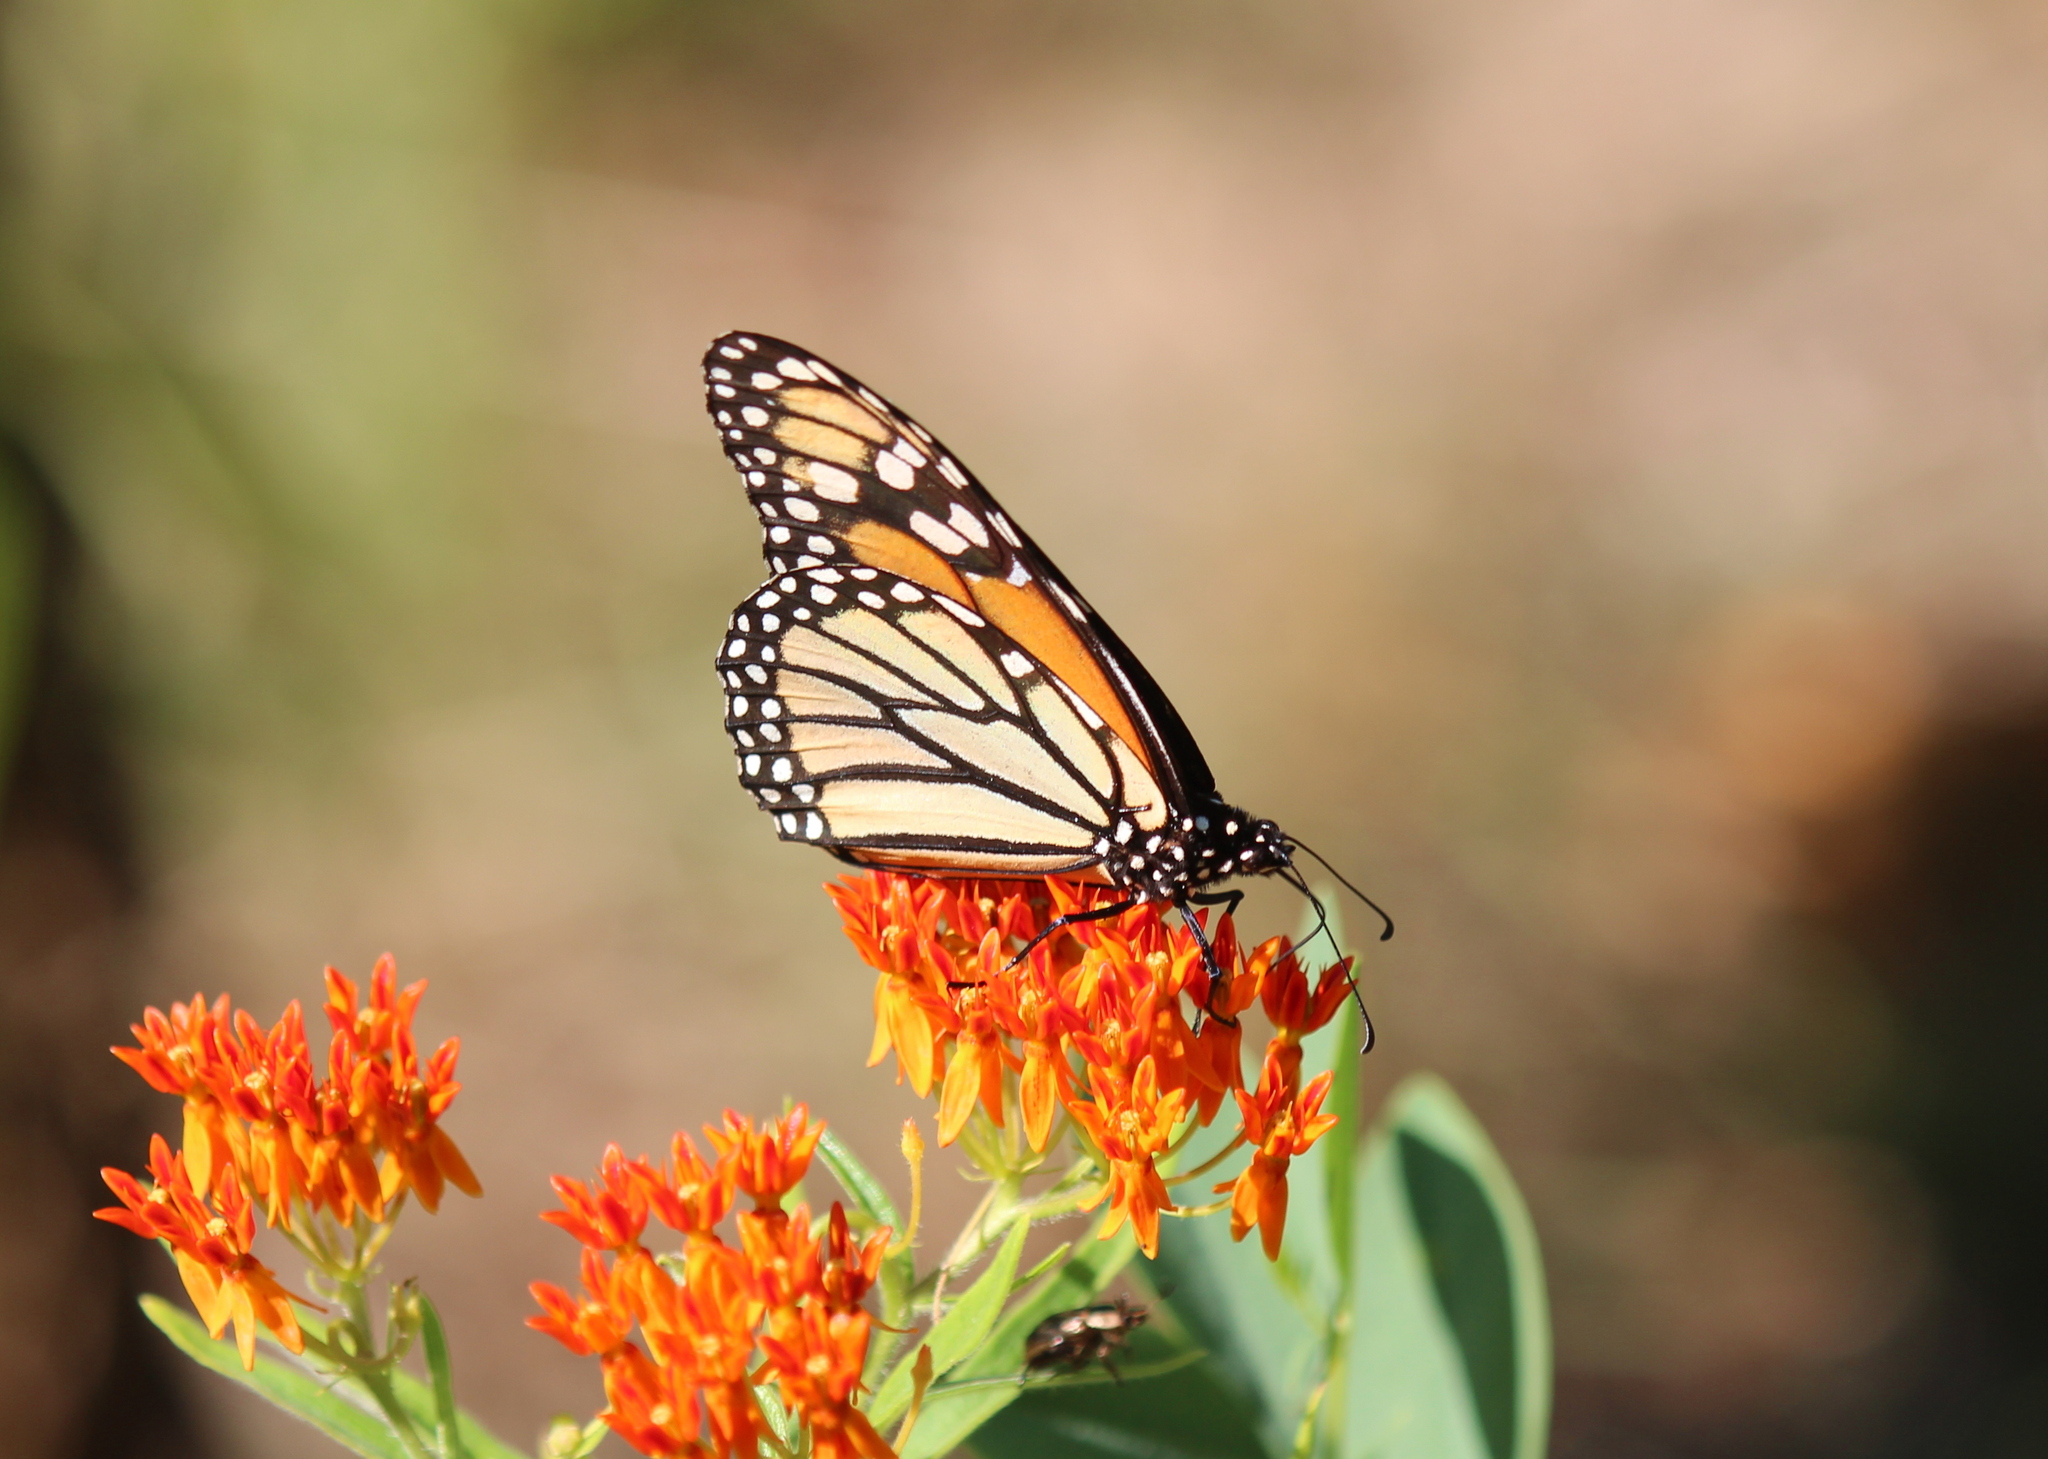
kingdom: Animalia
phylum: Arthropoda
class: Insecta
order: Lepidoptera
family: Nymphalidae
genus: Danaus
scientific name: Danaus plexippus
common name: Monarch
